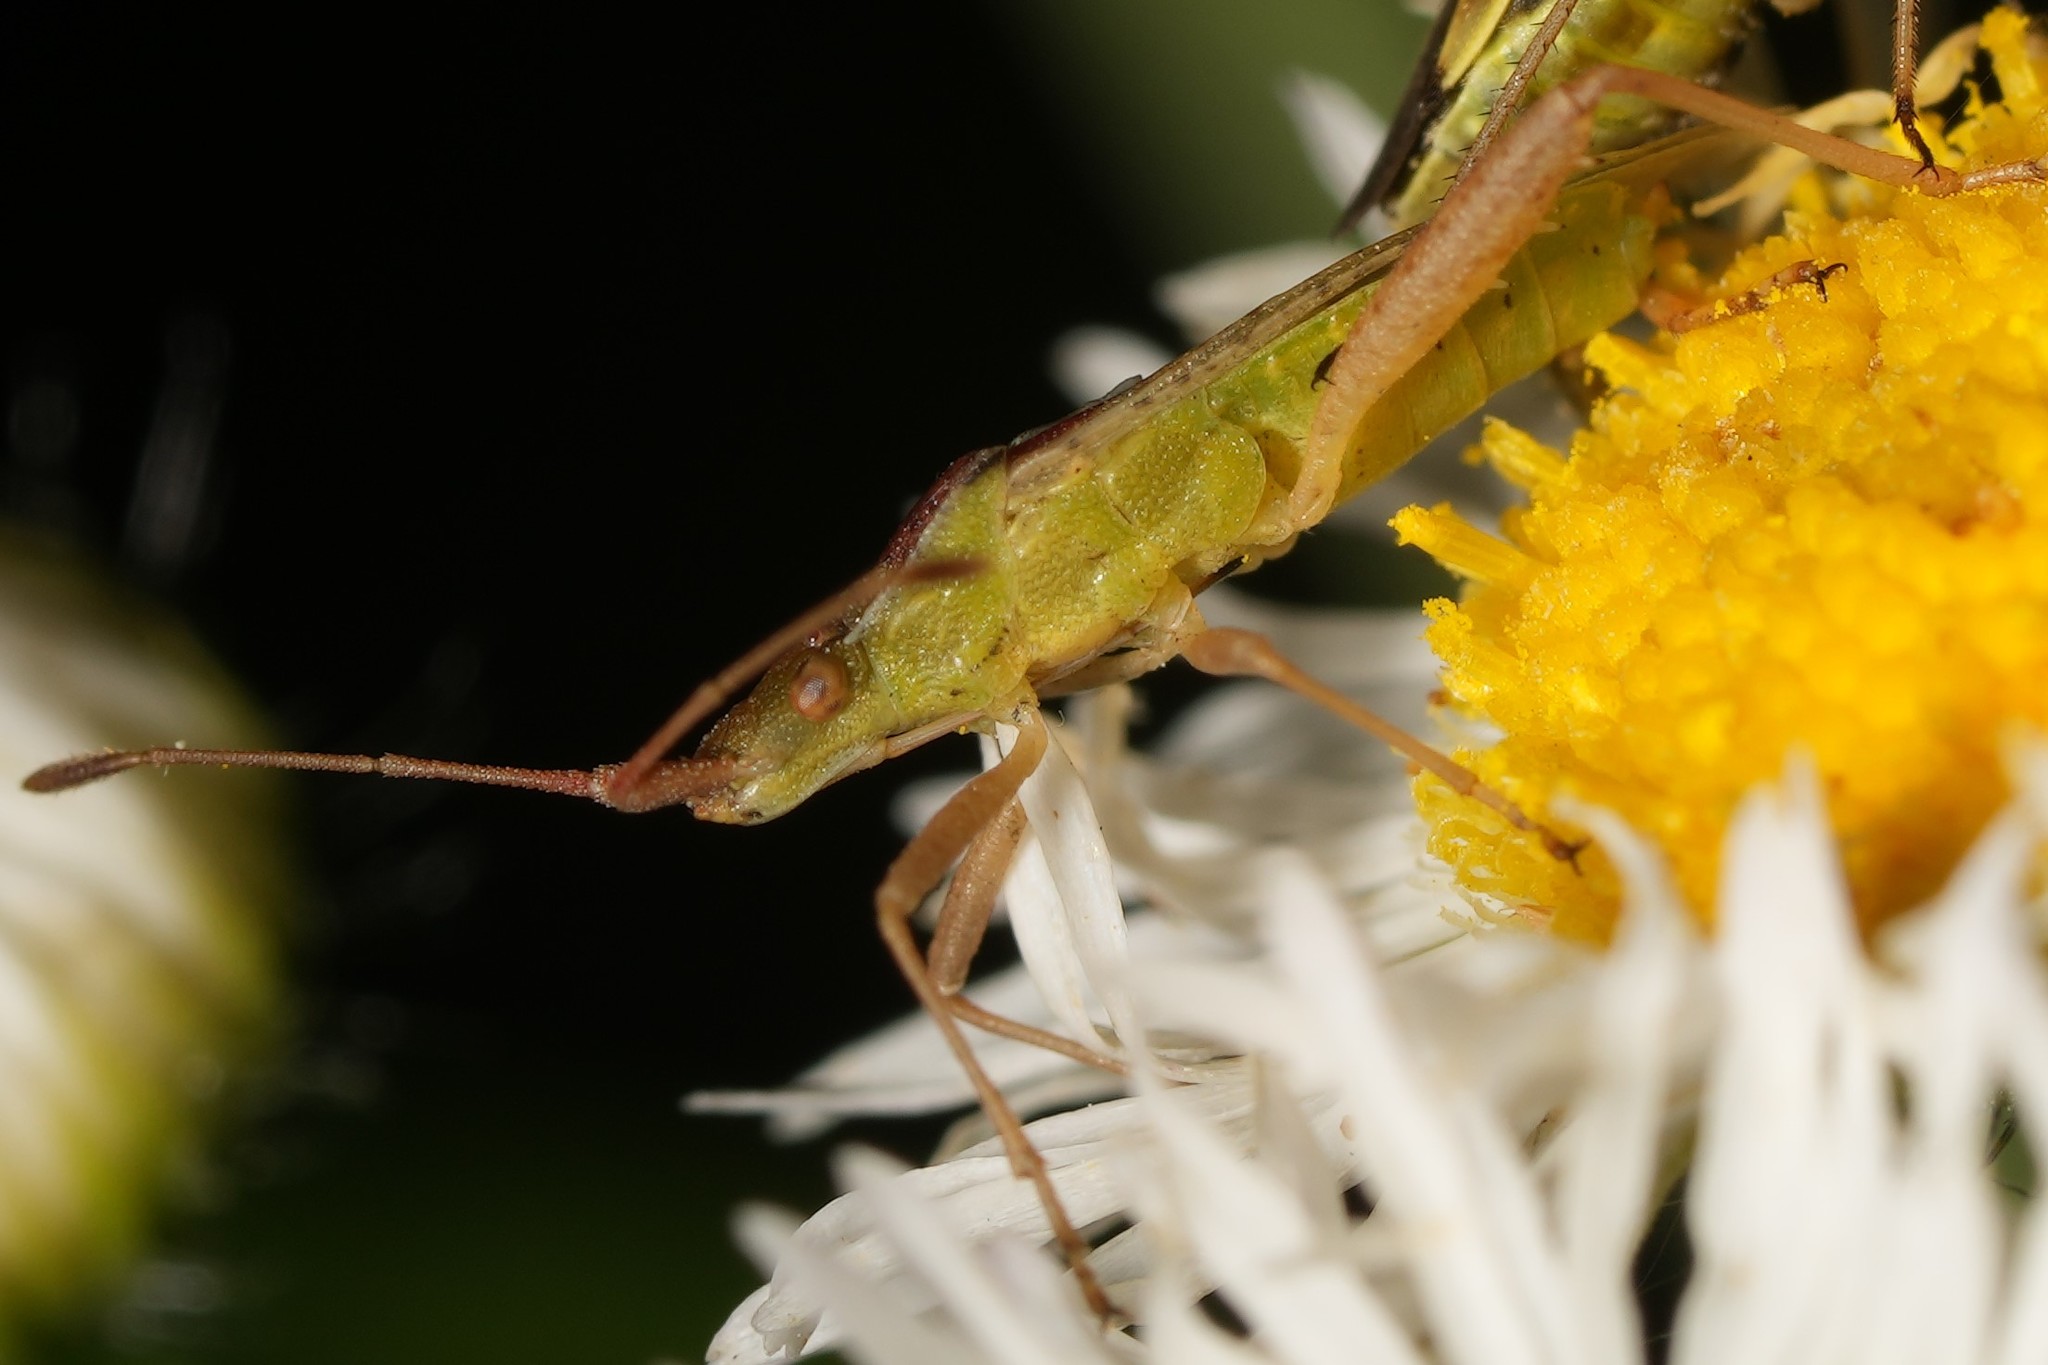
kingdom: Animalia
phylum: Arthropoda
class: Insecta
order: Hemiptera
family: Rhopalidae
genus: Harmostes
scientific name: Harmostes reflexulus
